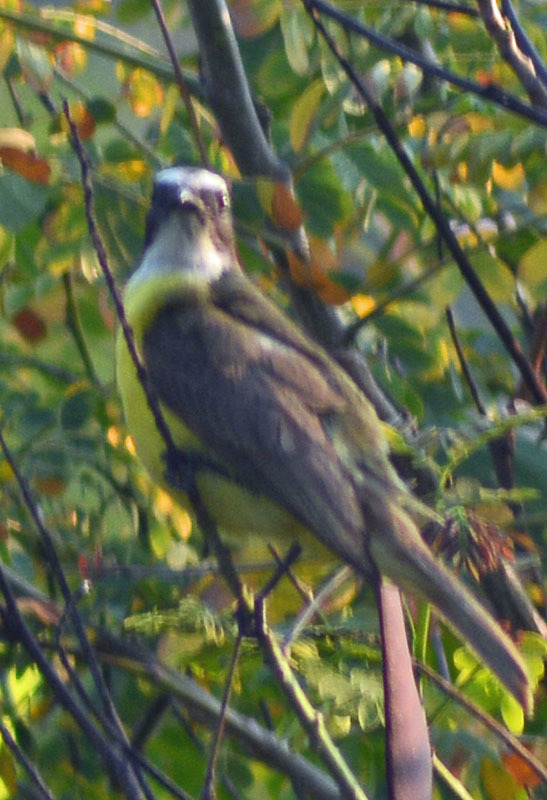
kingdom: Animalia
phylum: Chordata
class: Aves
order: Passeriformes
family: Tyrannidae
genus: Myiozetetes
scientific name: Myiozetetes similis
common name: Social flycatcher
